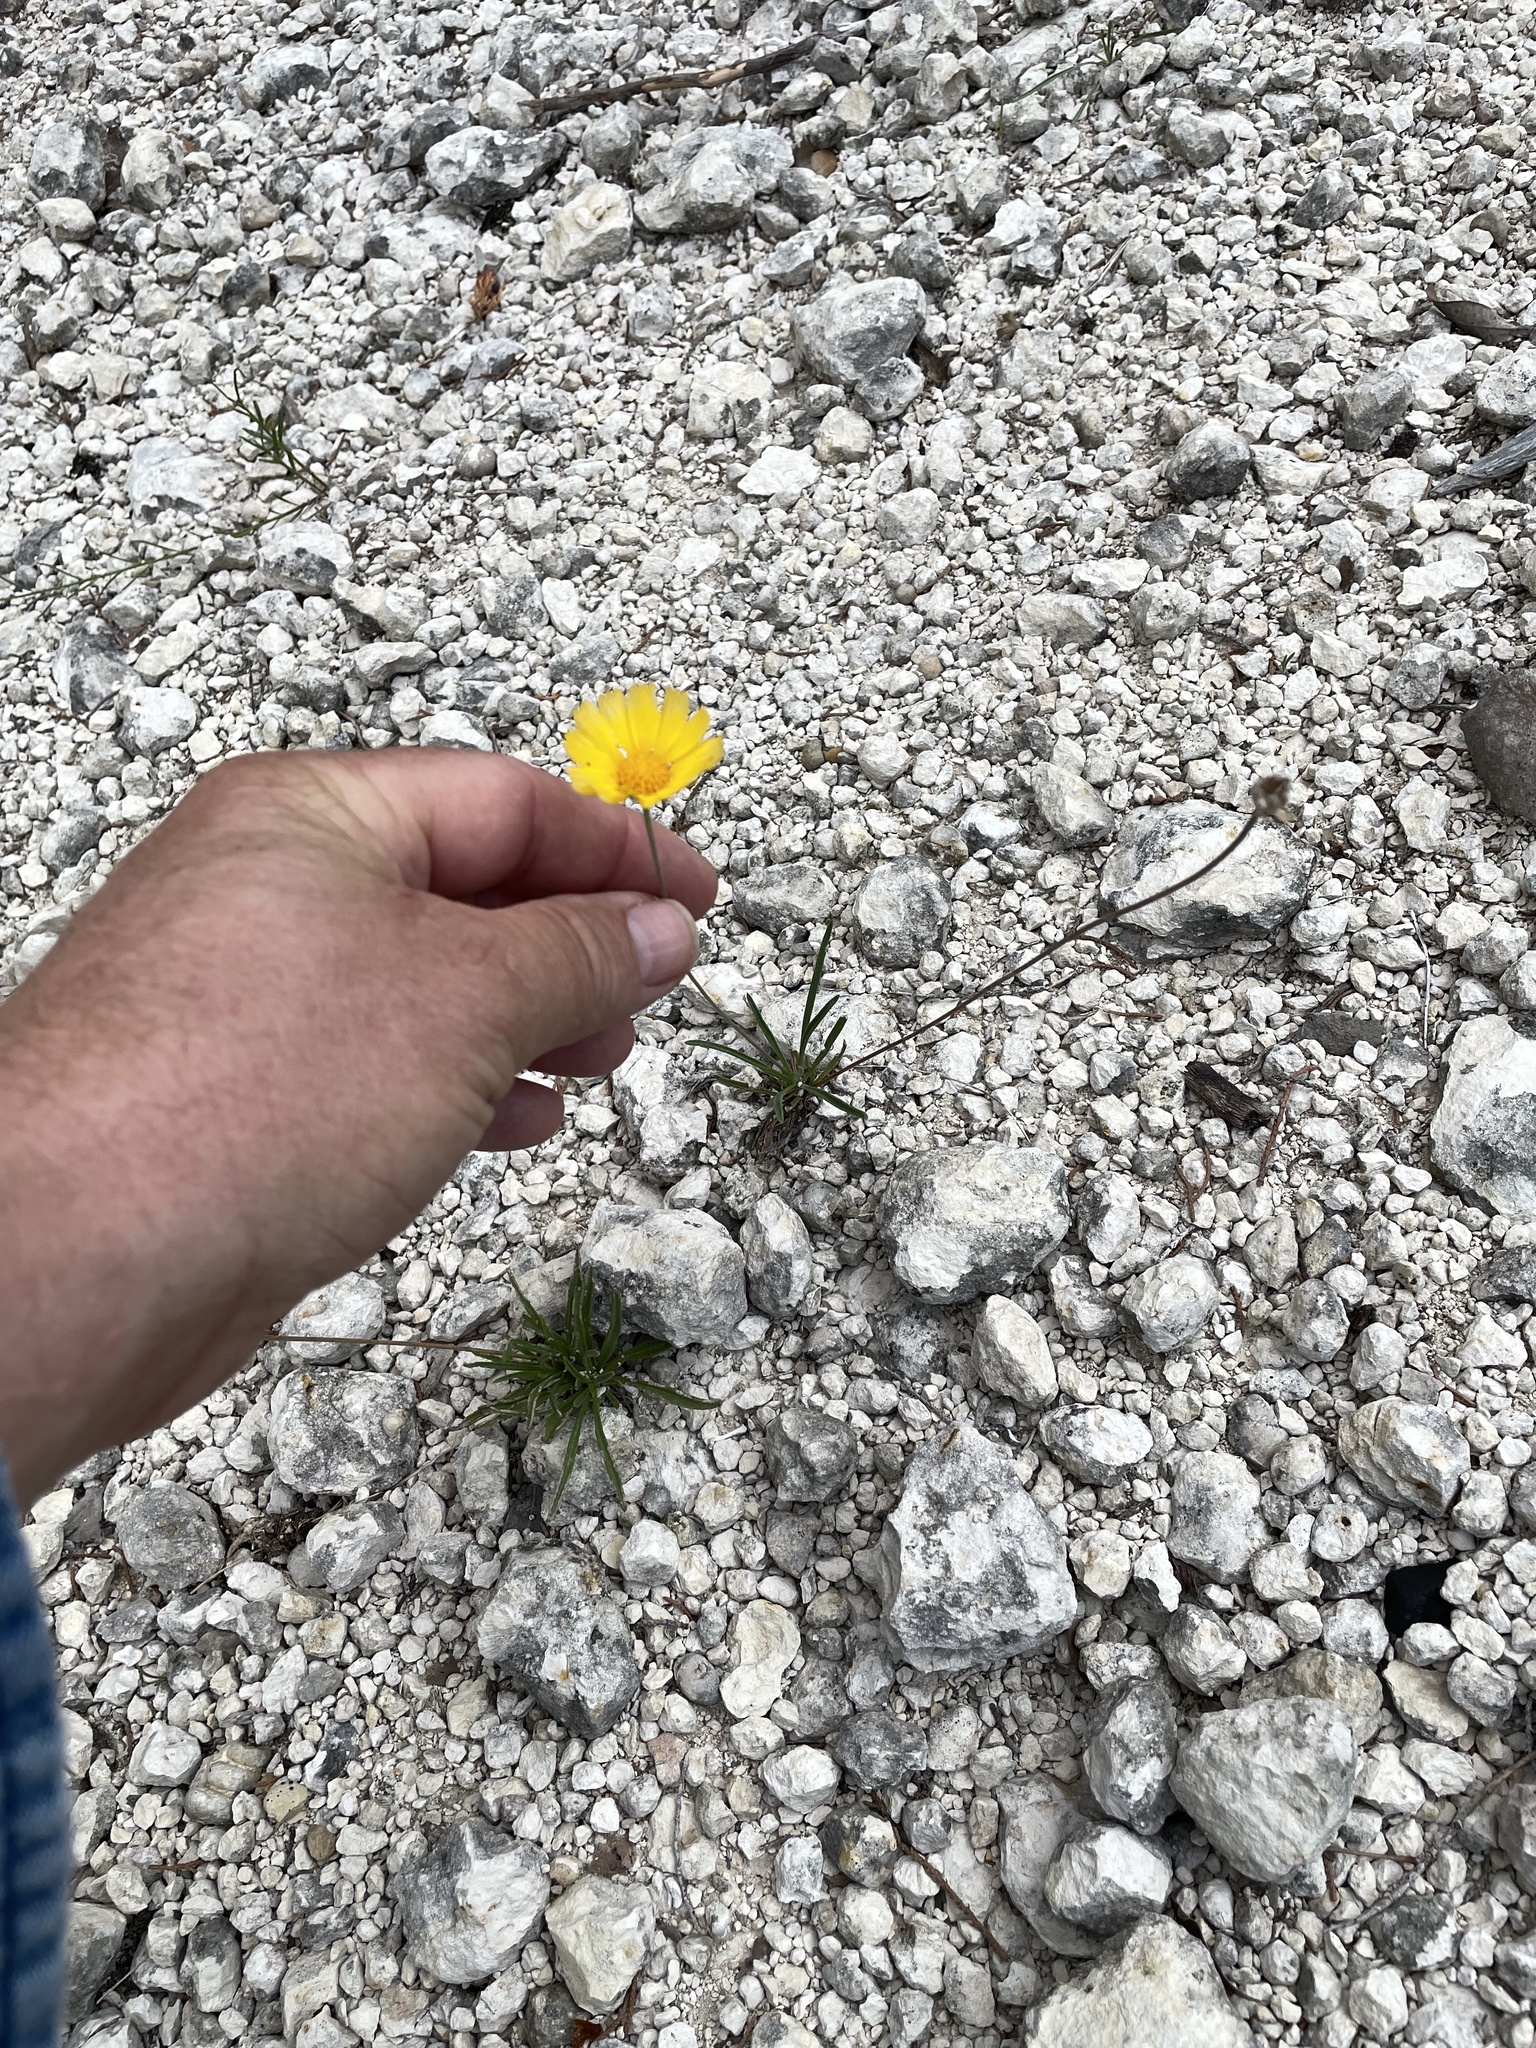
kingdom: Plantae
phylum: Tracheophyta
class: Magnoliopsida
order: Asterales
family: Asteraceae
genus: Tetraneuris
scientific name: Tetraneuris scaposa
